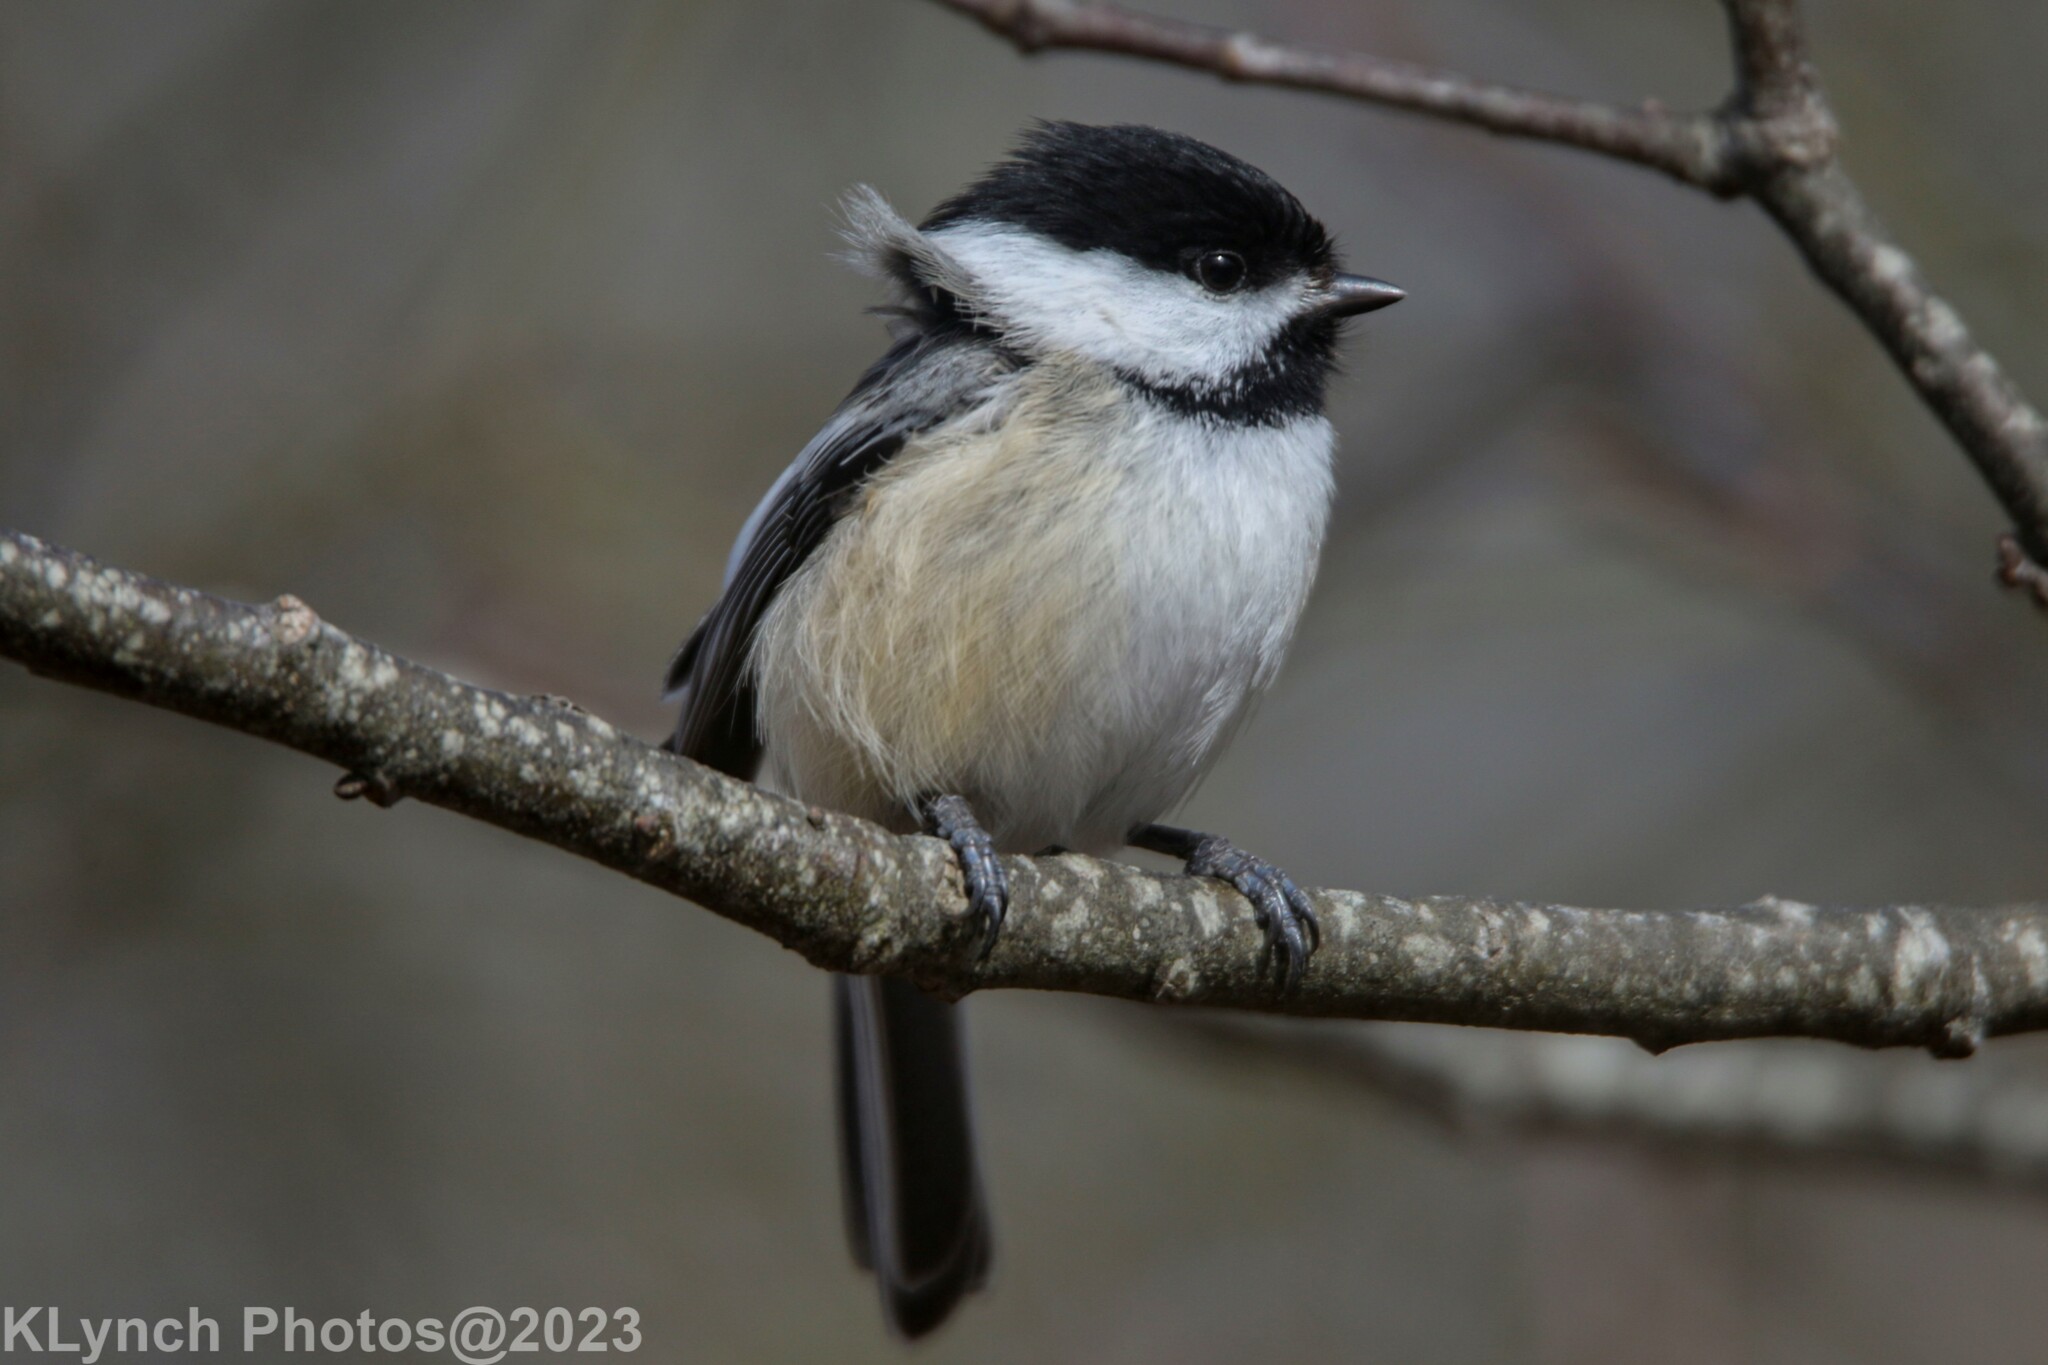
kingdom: Animalia
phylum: Chordata
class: Aves
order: Passeriformes
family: Paridae
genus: Poecile
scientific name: Poecile atricapillus
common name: Black-capped chickadee
